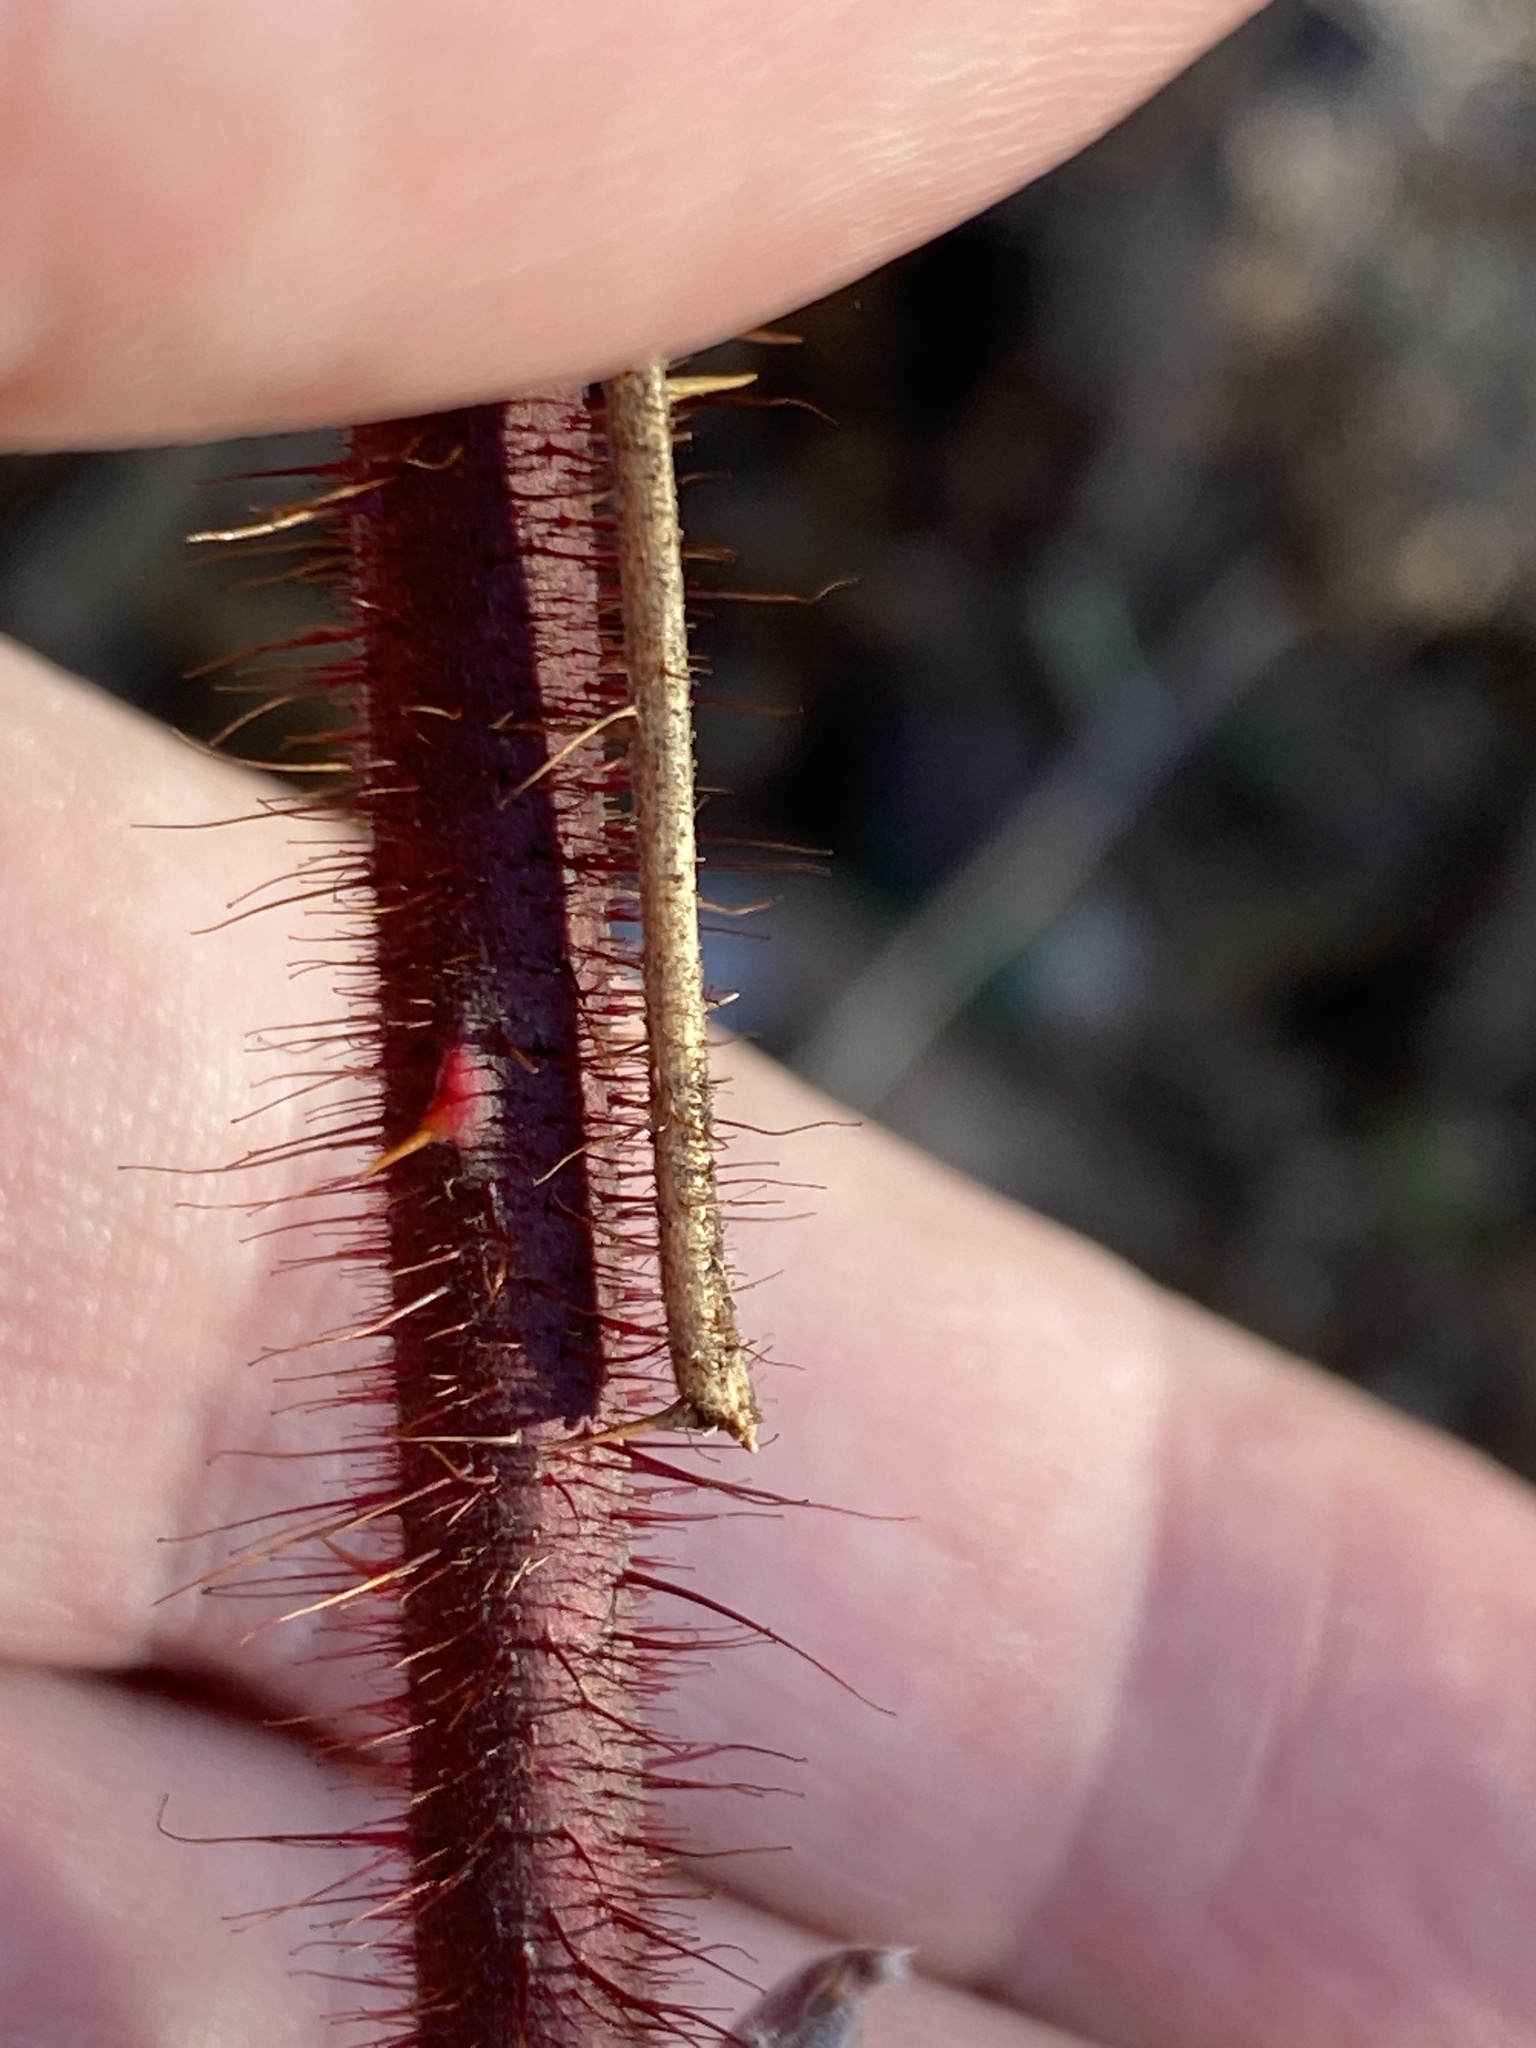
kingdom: Plantae
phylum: Tracheophyta
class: Magnoliopsida
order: Rosales
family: Rosaceae
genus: Rubus
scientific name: Rubus phoenicolasius
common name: Japanese wineberry
